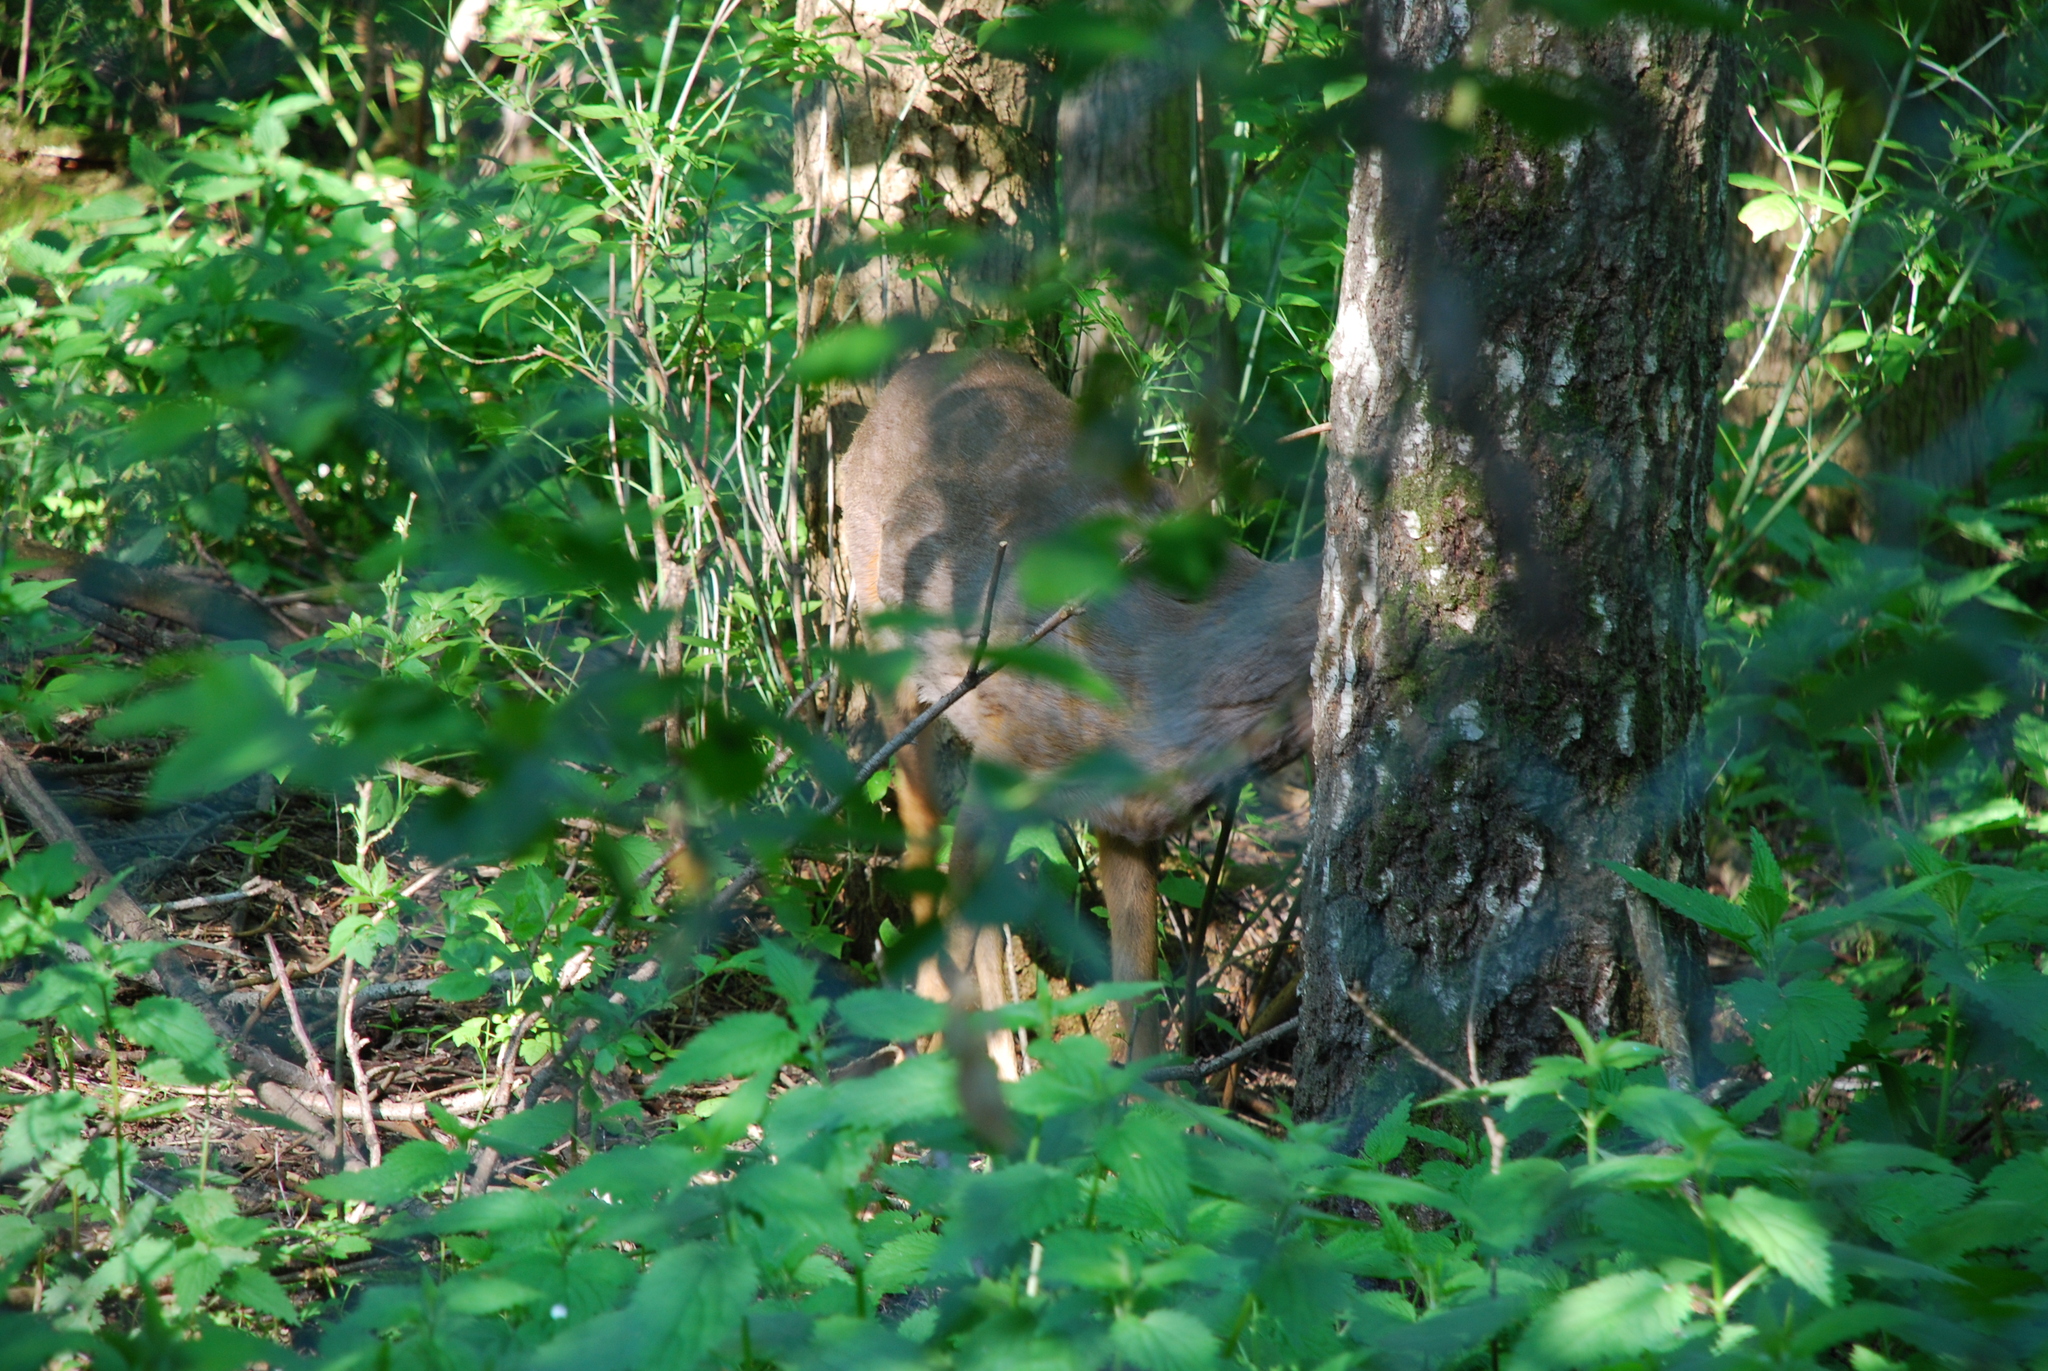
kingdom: Animalia
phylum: Chordata
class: Mammalia
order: Artiodactyla
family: Cervidae
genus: Capreolus
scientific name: Capreolus capreolus
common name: Western roe deer
